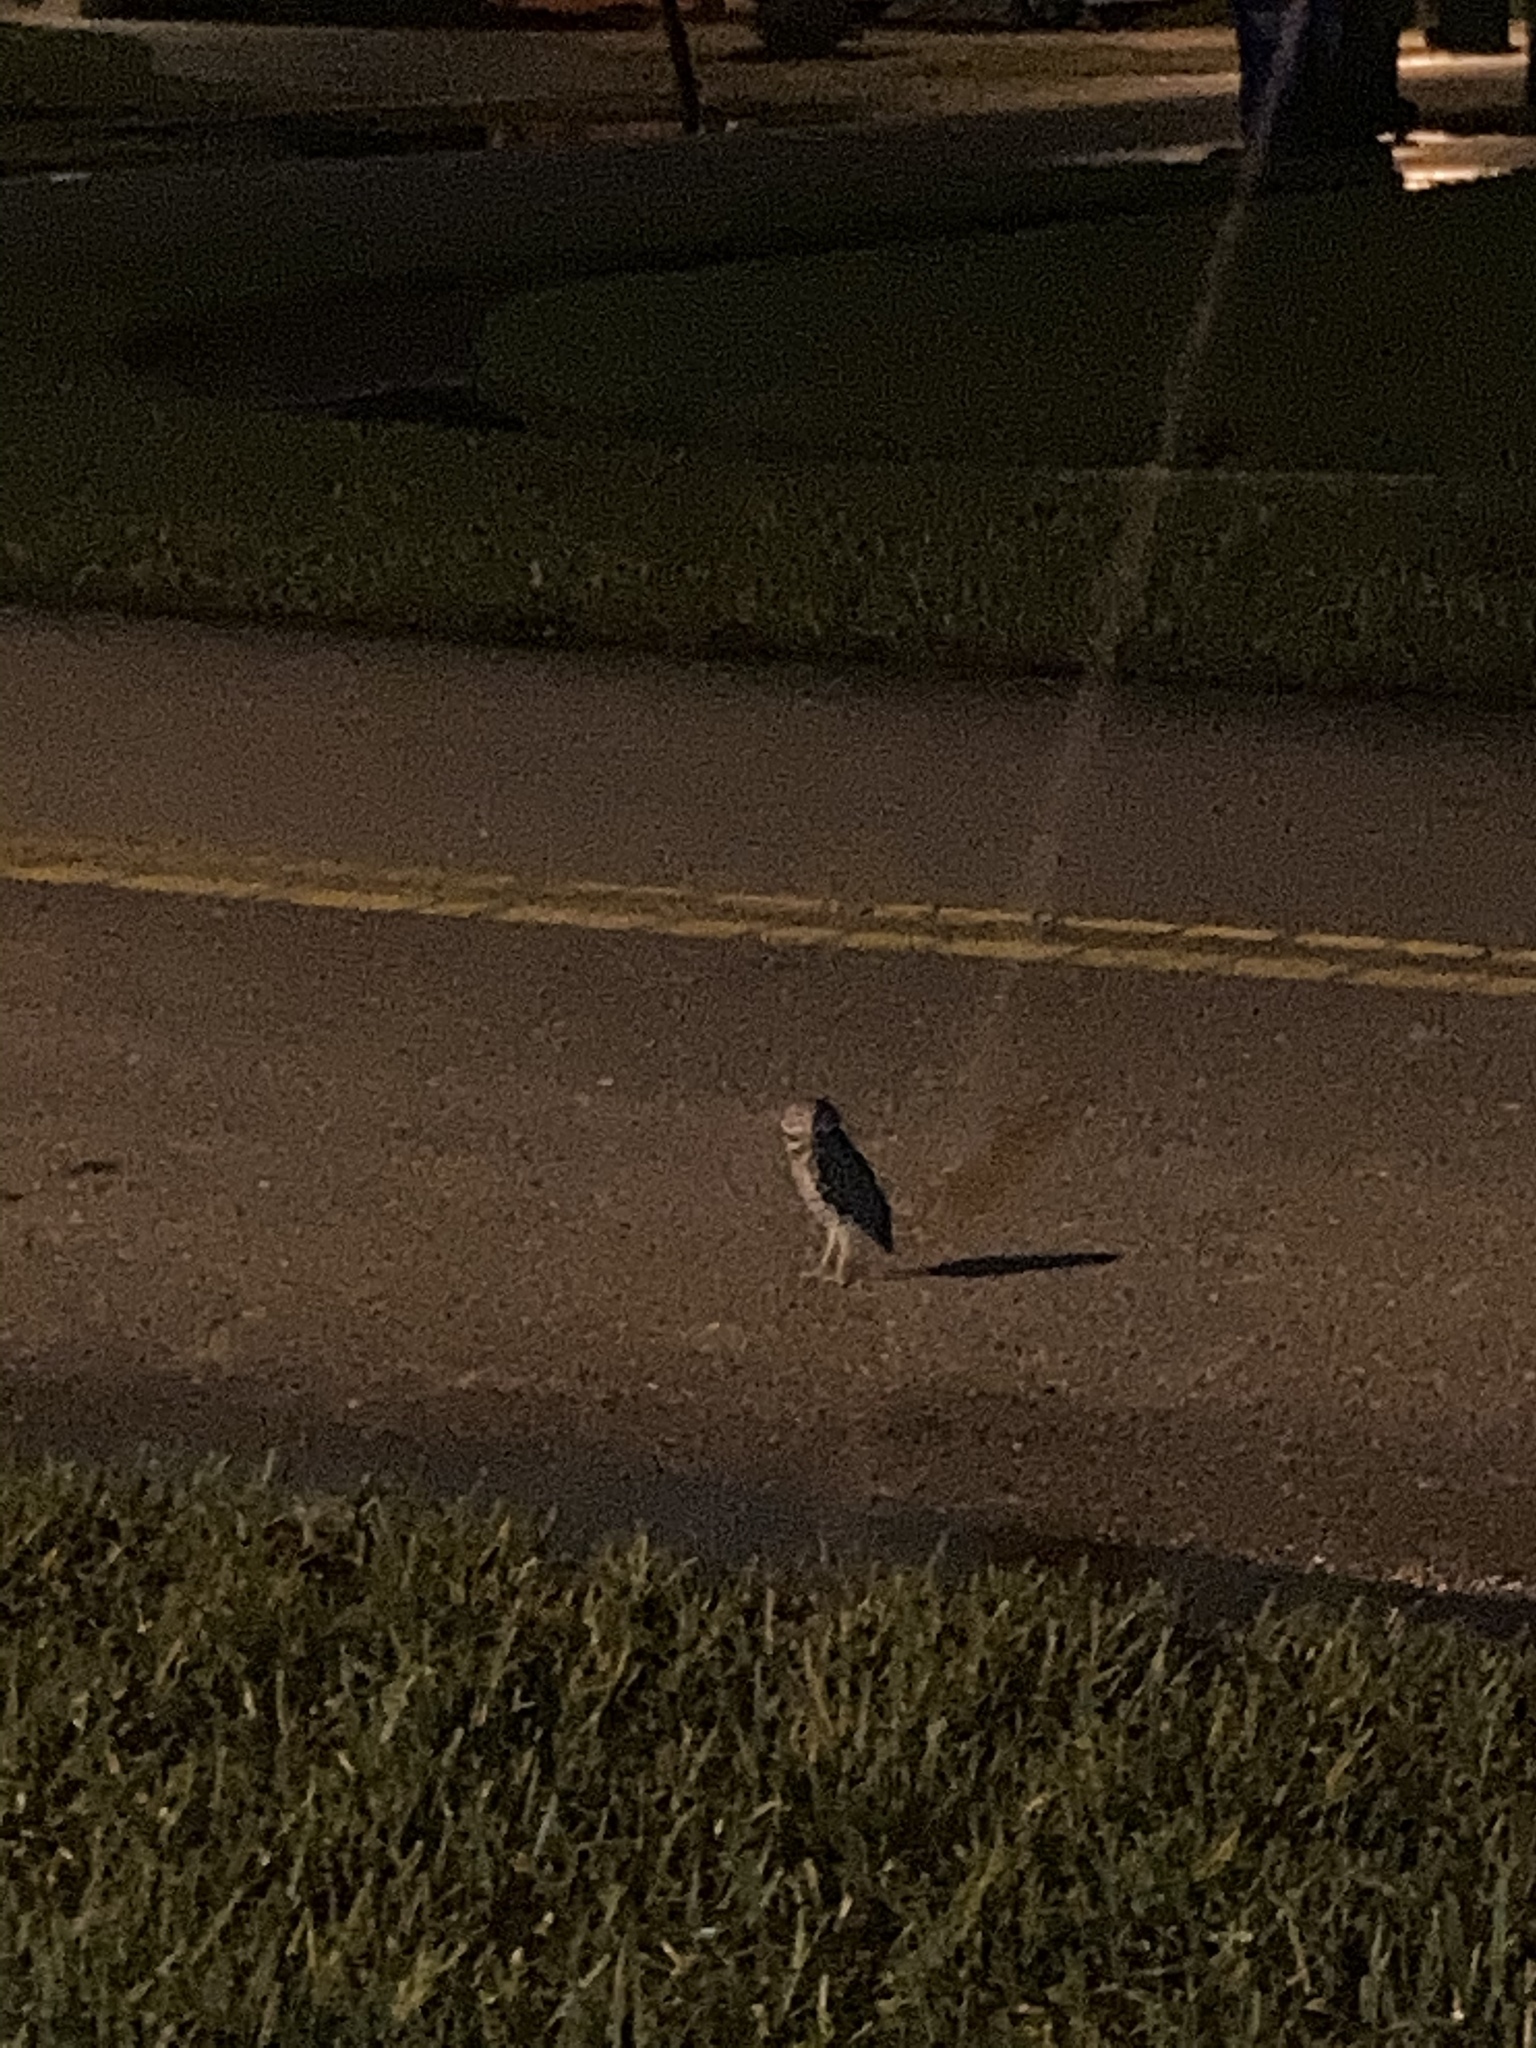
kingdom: Animalia
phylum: Chordata
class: Aves
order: Strigiformes
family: Strigidae
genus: Athene
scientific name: Athene cunicularia
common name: Burrowing owl
